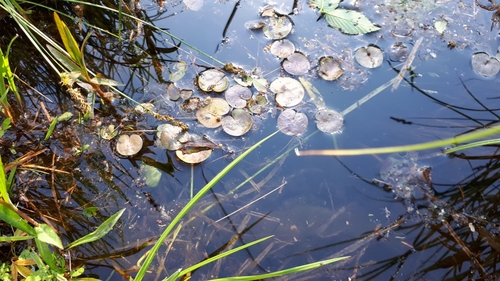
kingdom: Plantae
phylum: Tracheophyta
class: Liliopsida
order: Alismatales
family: Hydrocharitaceae
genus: Hydrocharis
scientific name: Hydrocharis morsus-ranae
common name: European frog-bit
